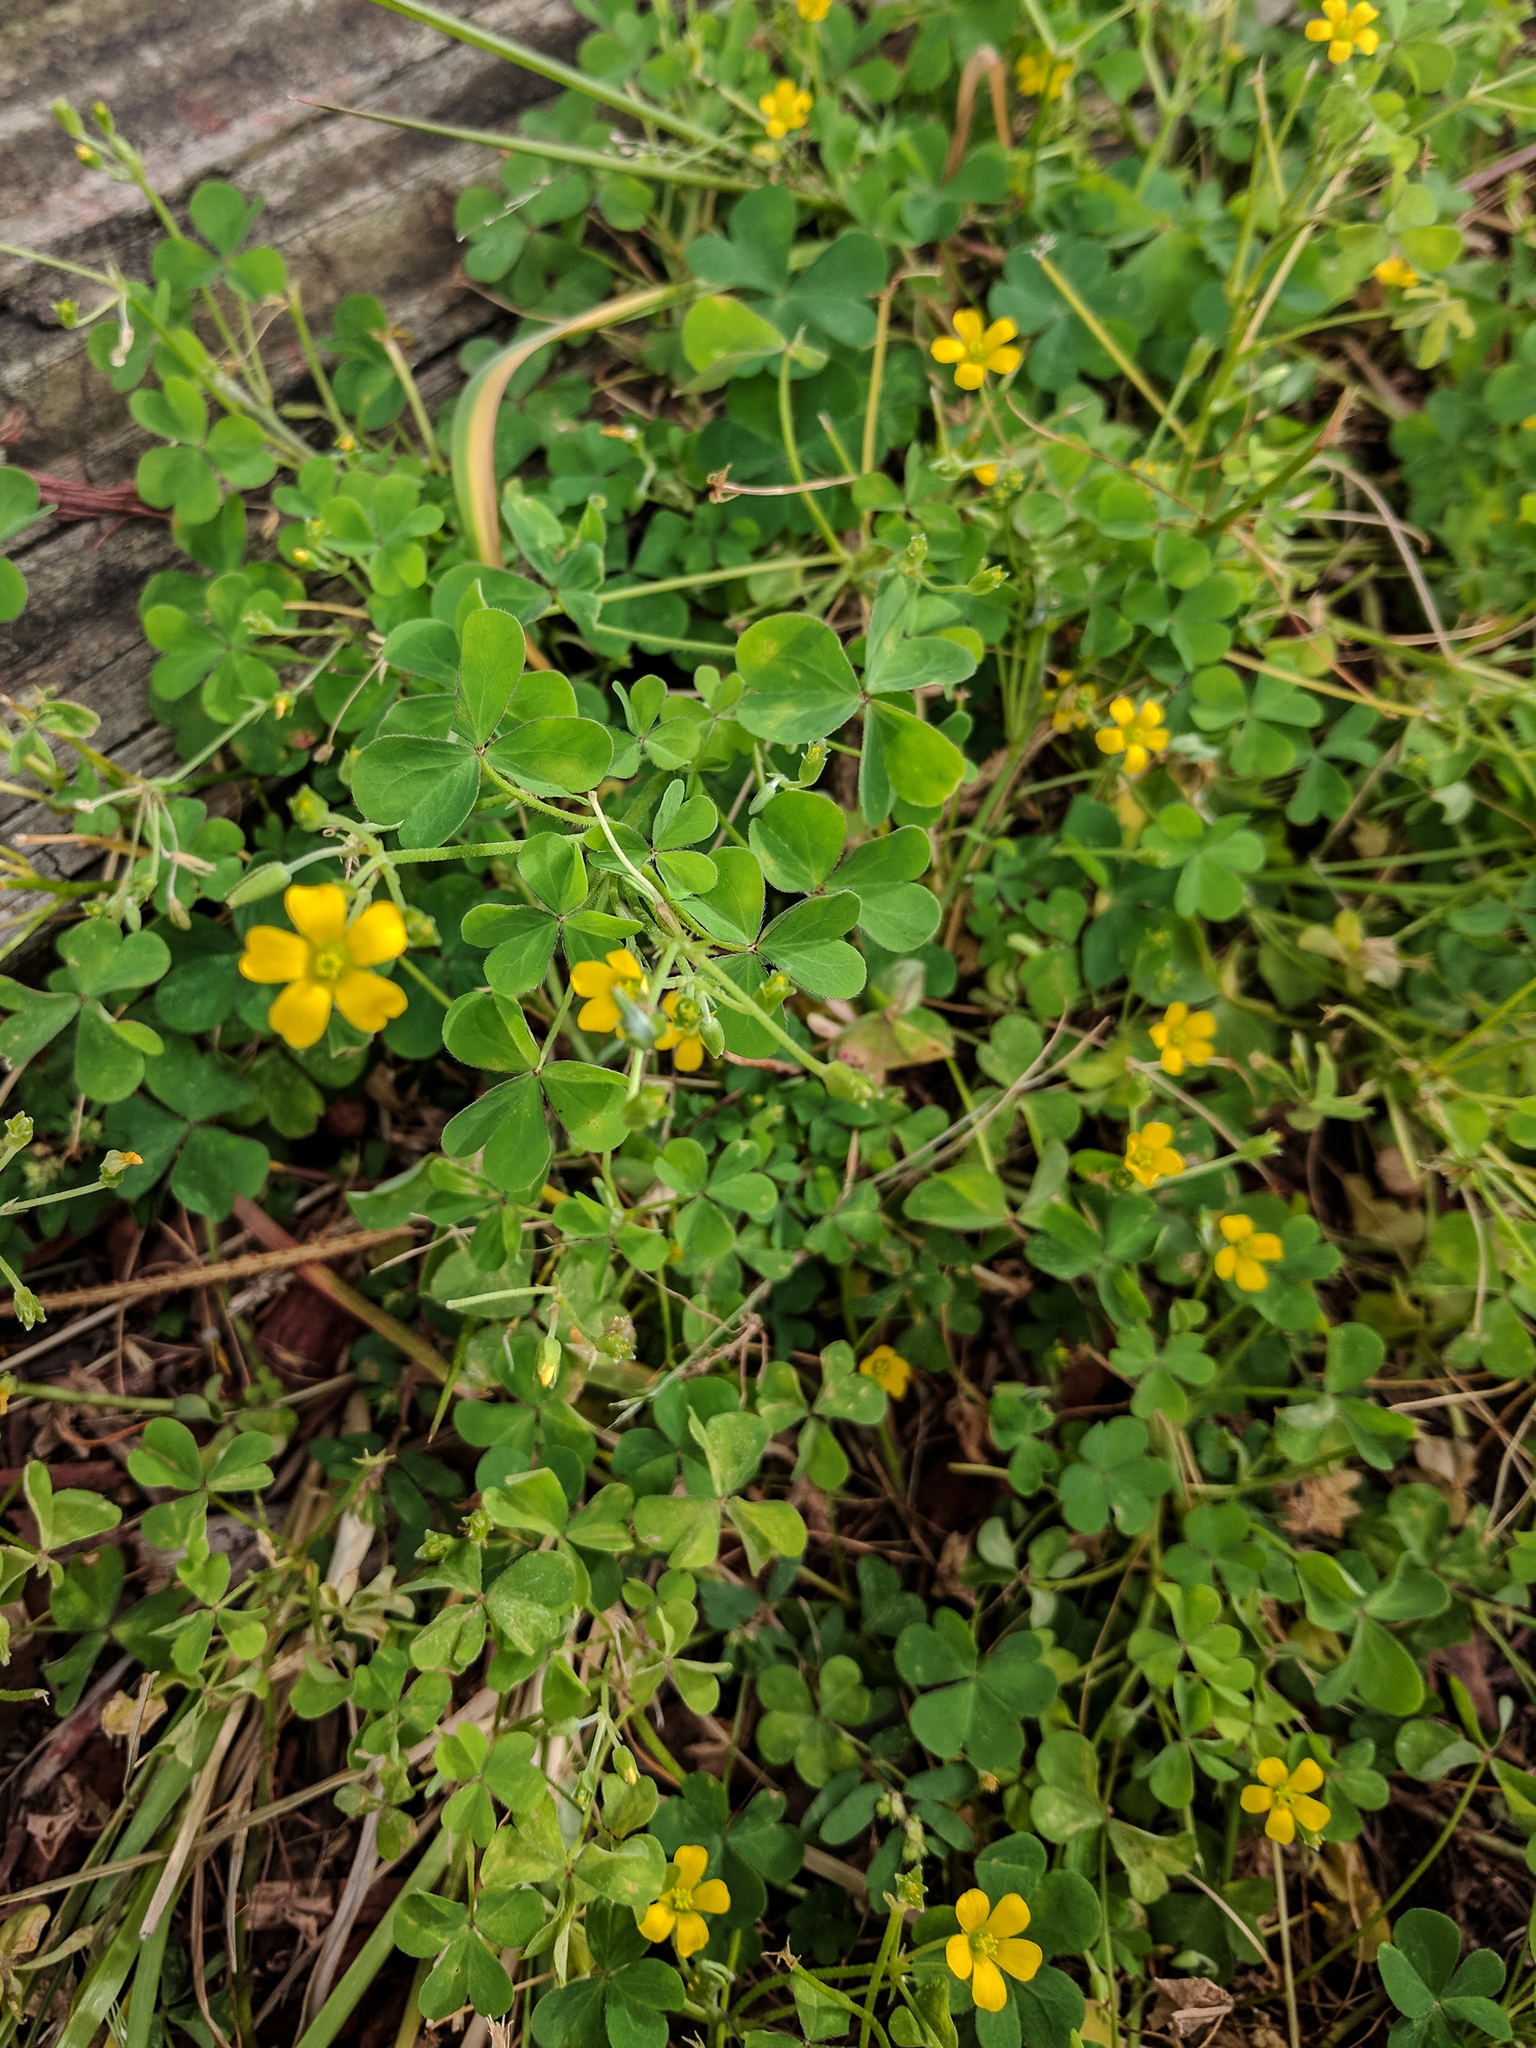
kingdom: Plantae
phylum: Tracheophyta
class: Magnoliopsida
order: Oxalidales
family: Oxalidaceae
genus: Oxalis
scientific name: Oxalis stricta
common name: Upright yellow-sorrel
